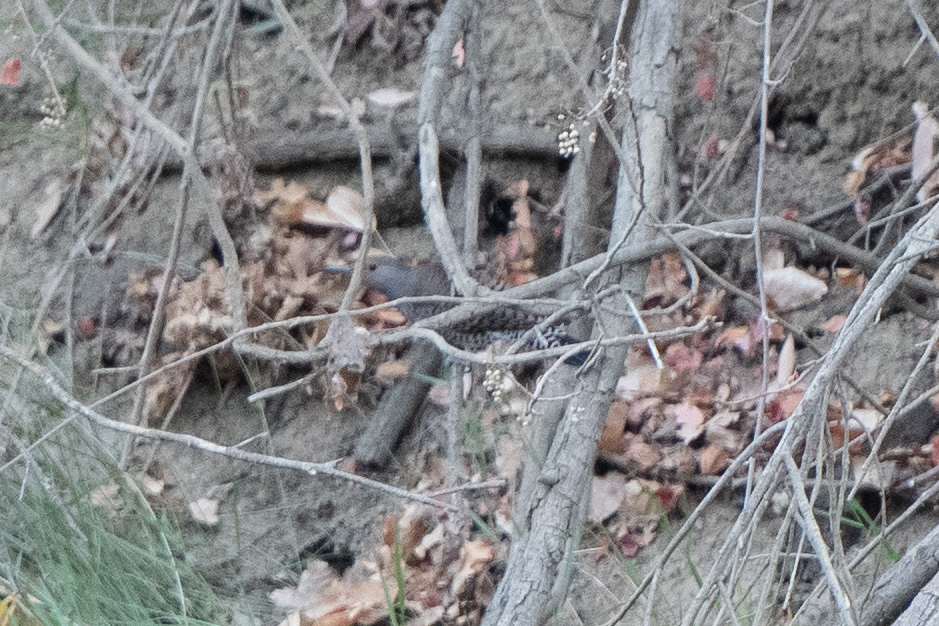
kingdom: Animalia
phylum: Chordata
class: Aves
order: Piciformes
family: Picidae
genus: Colaptes
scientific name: Colaptes auratus
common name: Northern flicker
